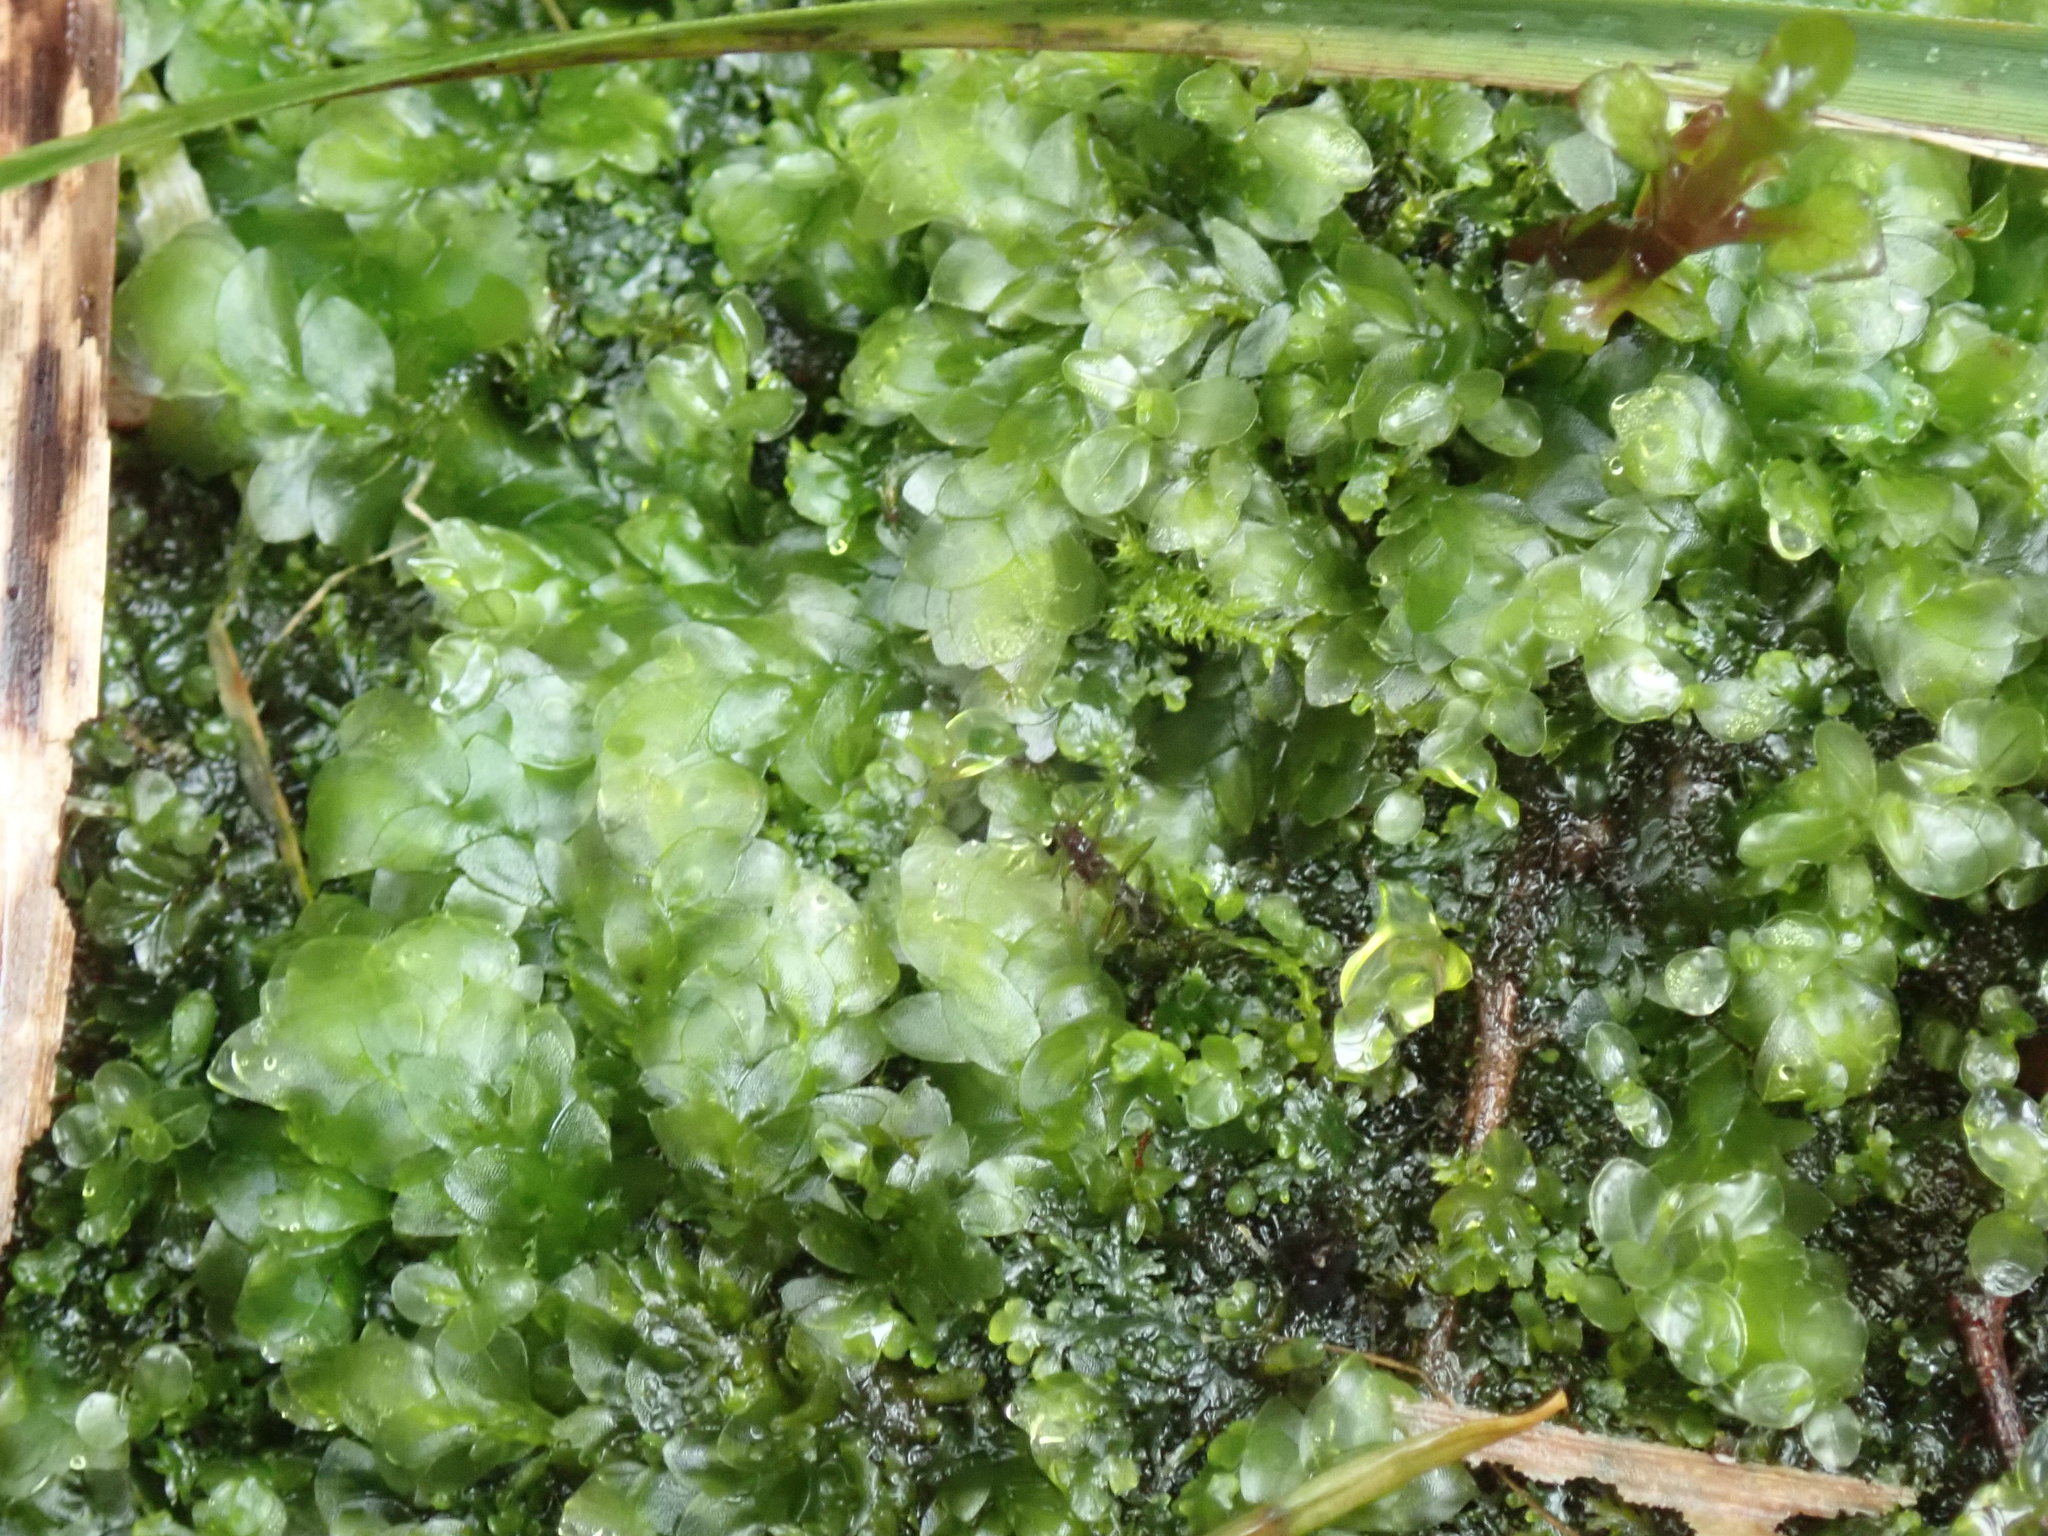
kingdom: Plantae
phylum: Bryophyta
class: Bryopsida
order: Hookeriales
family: Hookeriaceae
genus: Hookeria
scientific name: Hookeria lucens
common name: Shining hookeria
